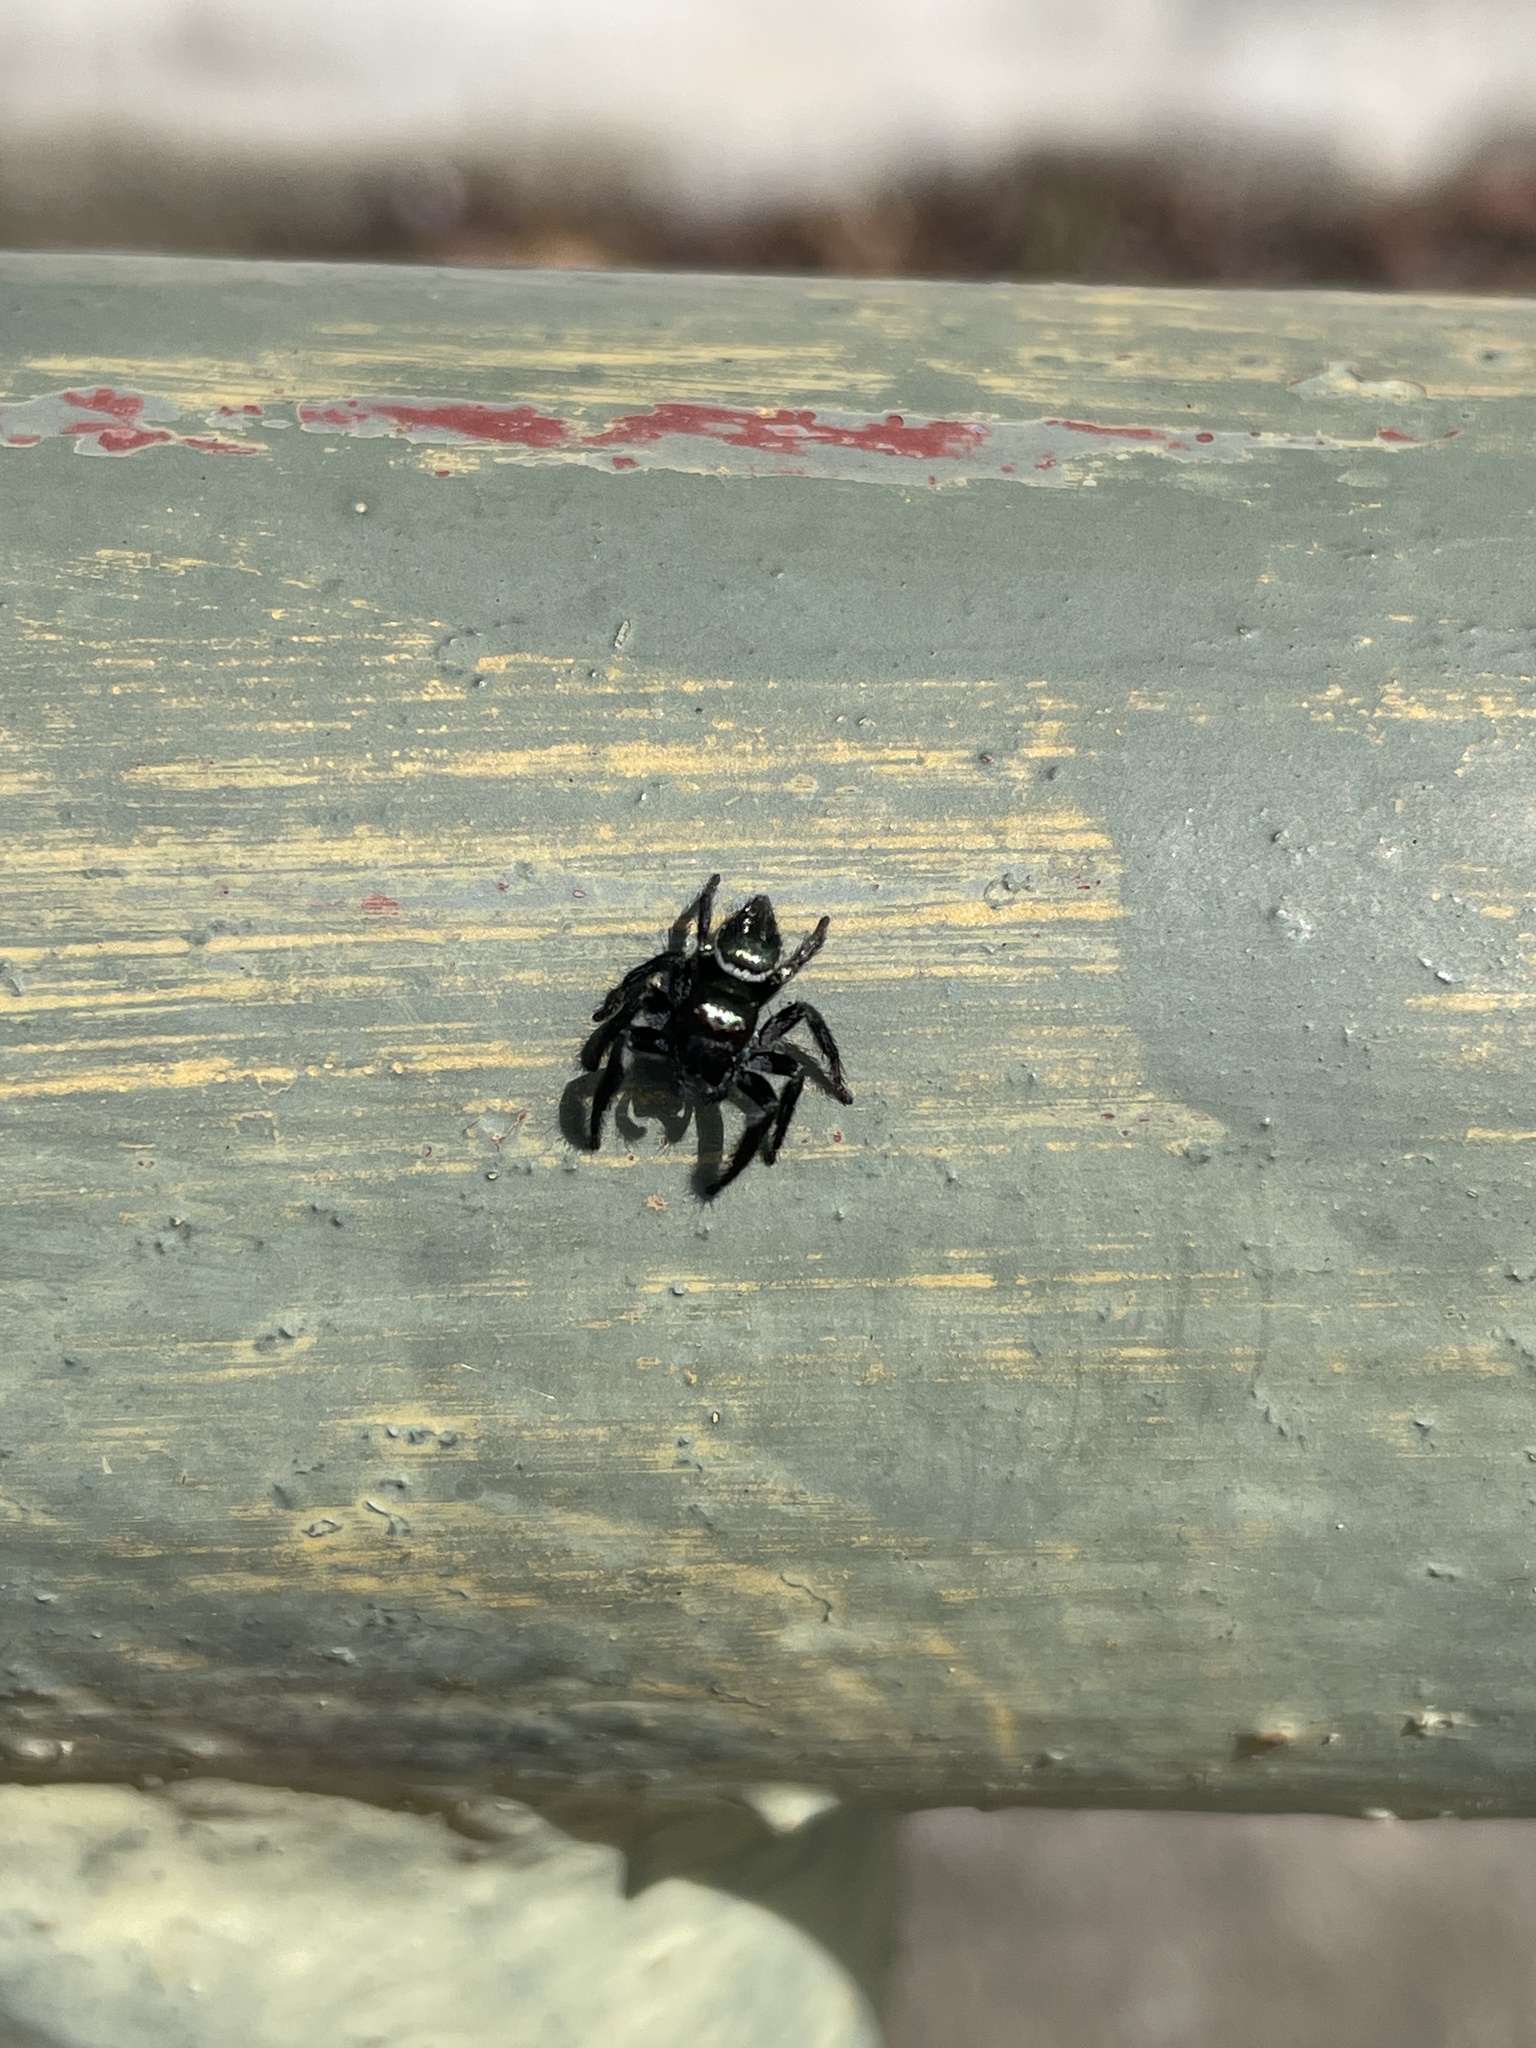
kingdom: Animalia
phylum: Arthropoda
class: Arachnida
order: Araneae
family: Salticidae
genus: Carrhotus
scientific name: Carrhotus viduus
